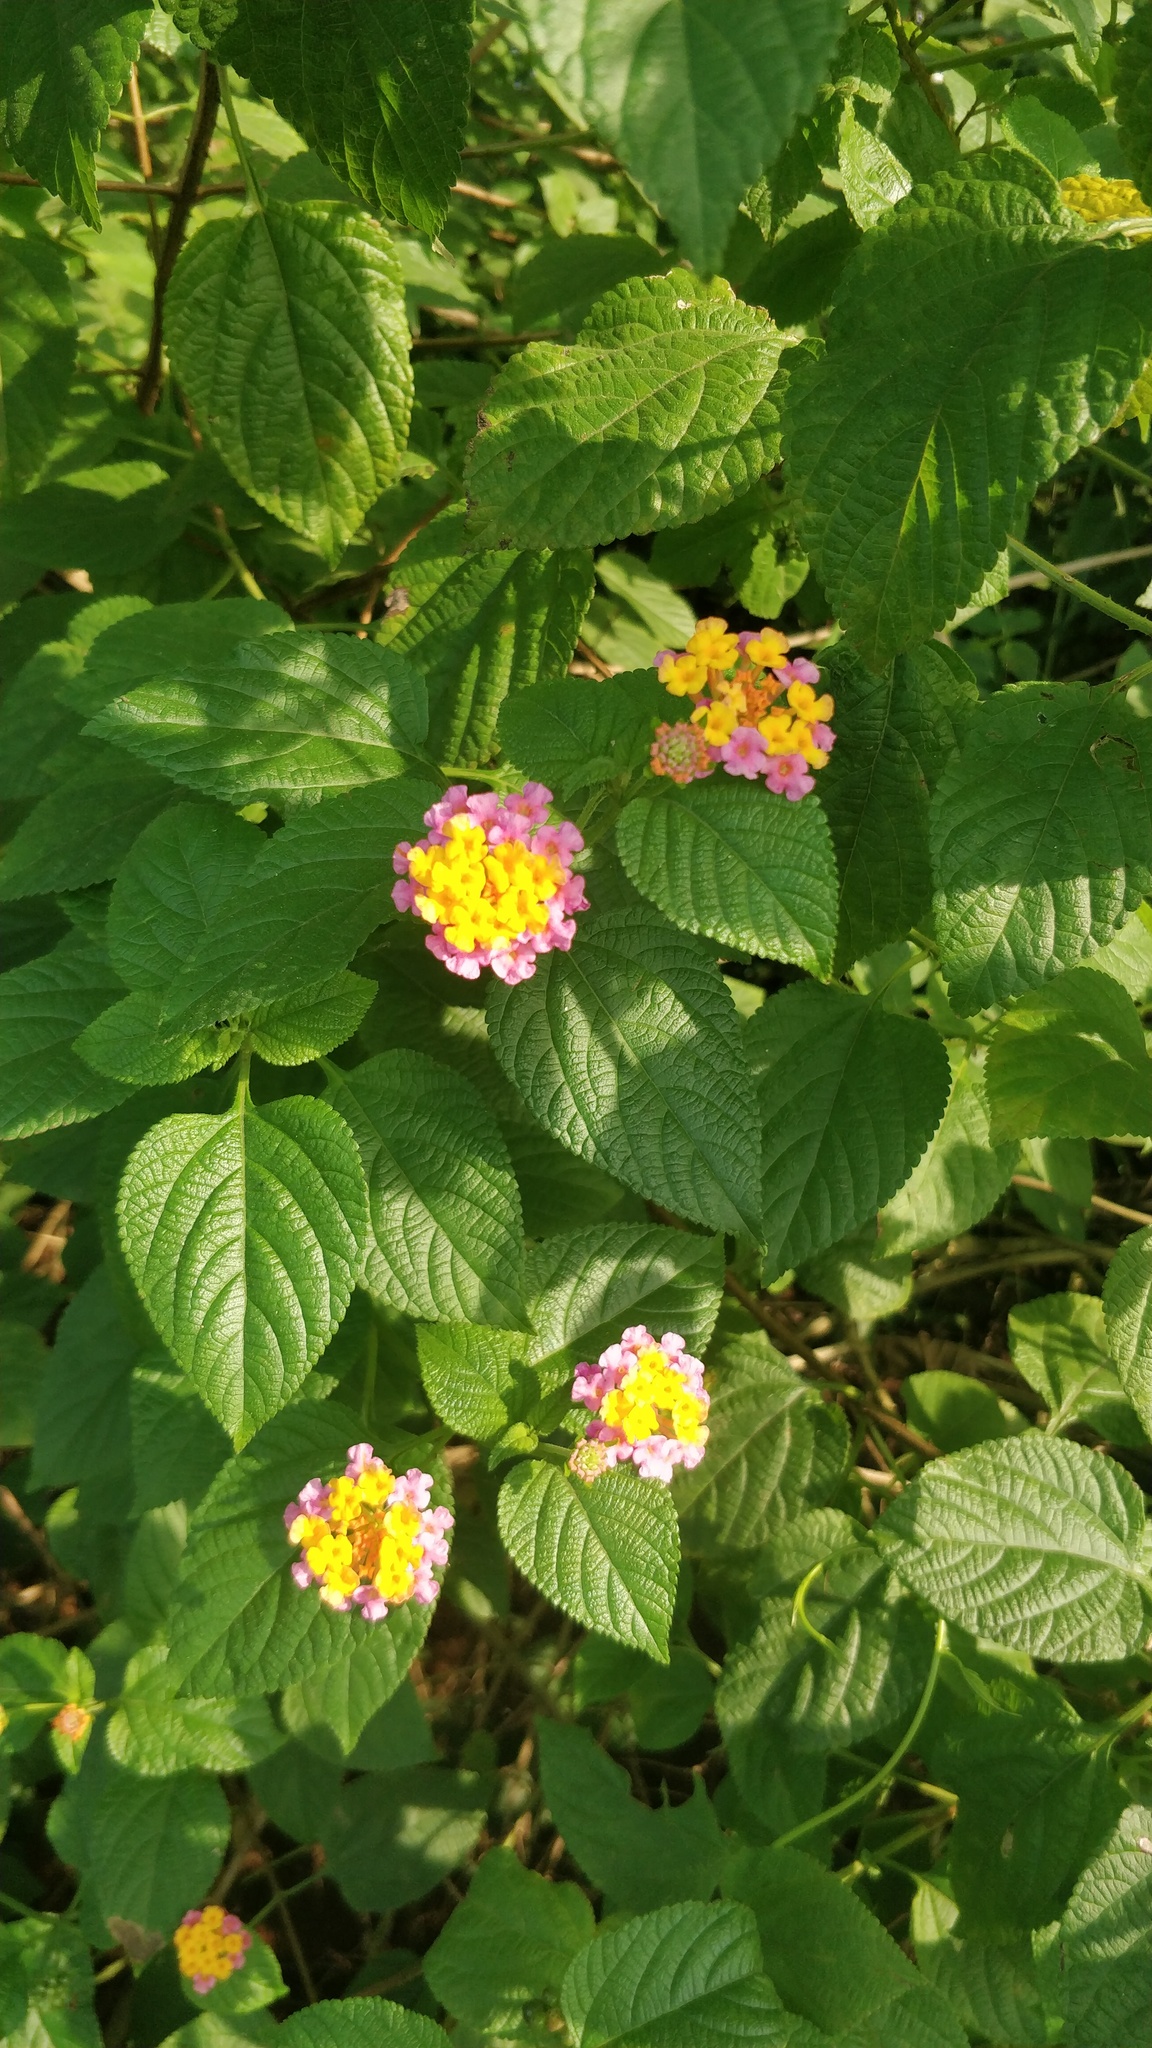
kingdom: Plantae
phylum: Tracheophyta
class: Magnoliopsida
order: Lamiales
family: Verbenaceae
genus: Lantana
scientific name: Lantana camara
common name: Lantana
